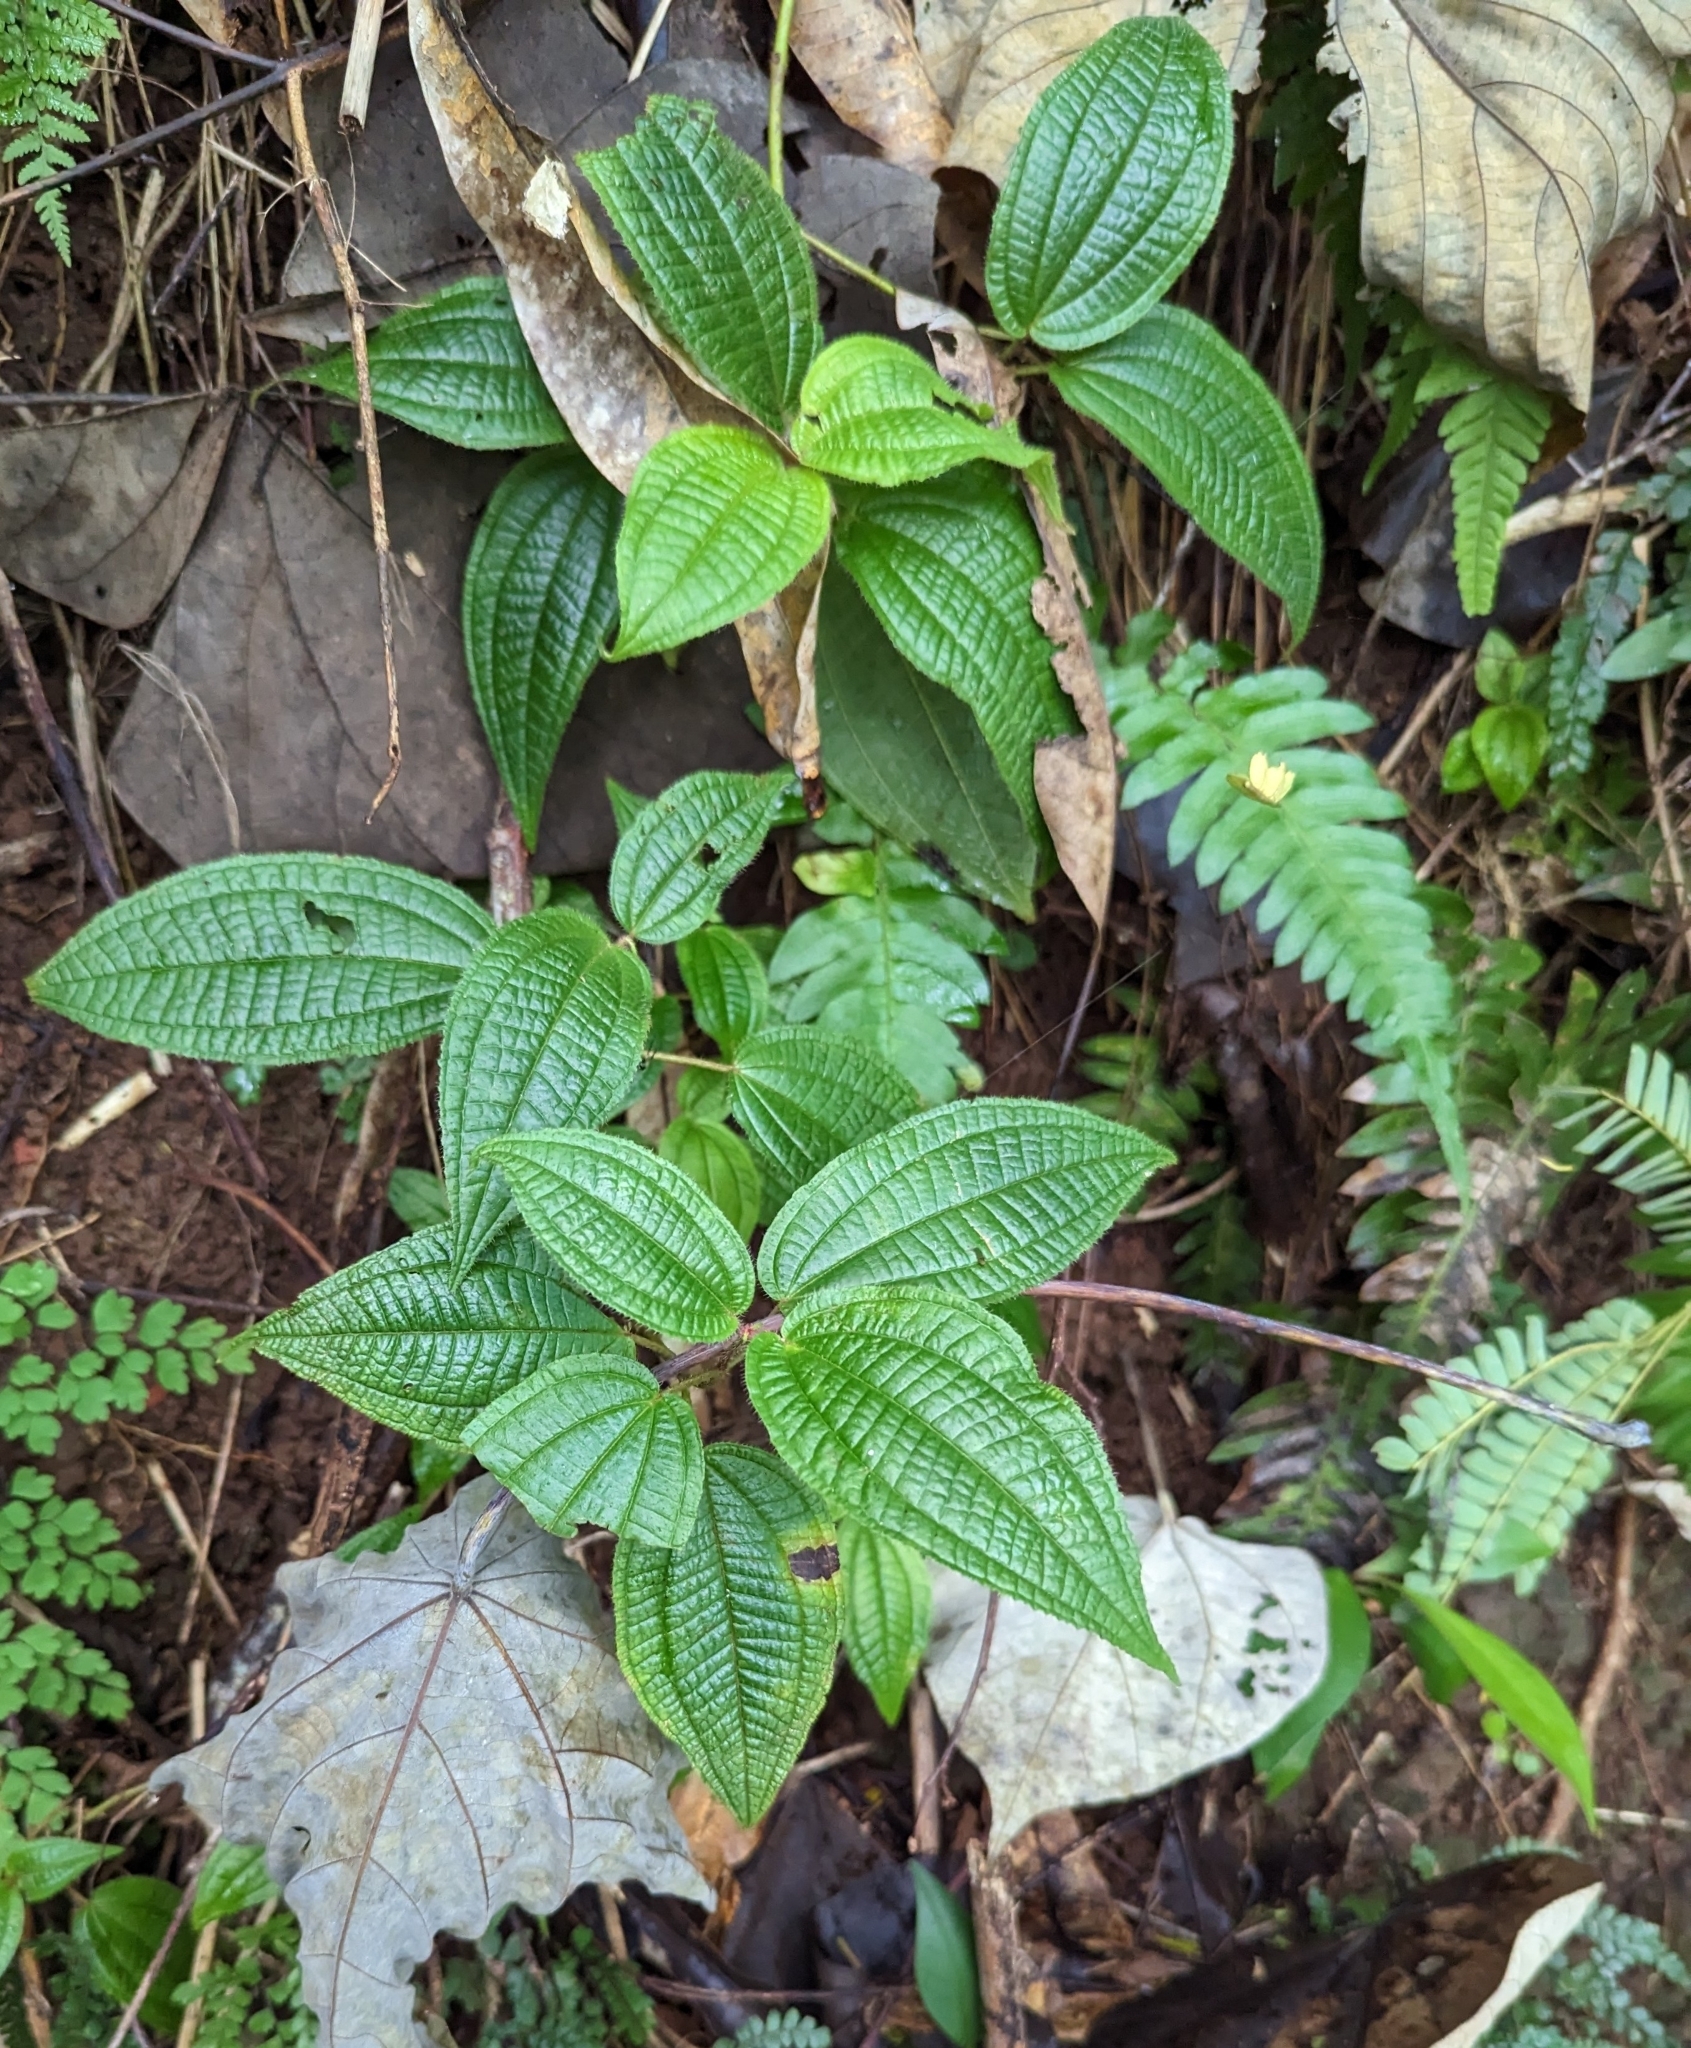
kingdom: Plantae
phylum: Tracheophyta
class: Magnoliopsida
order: Myrtales
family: Melastomataceae
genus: Miconia
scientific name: Miconia crenata
